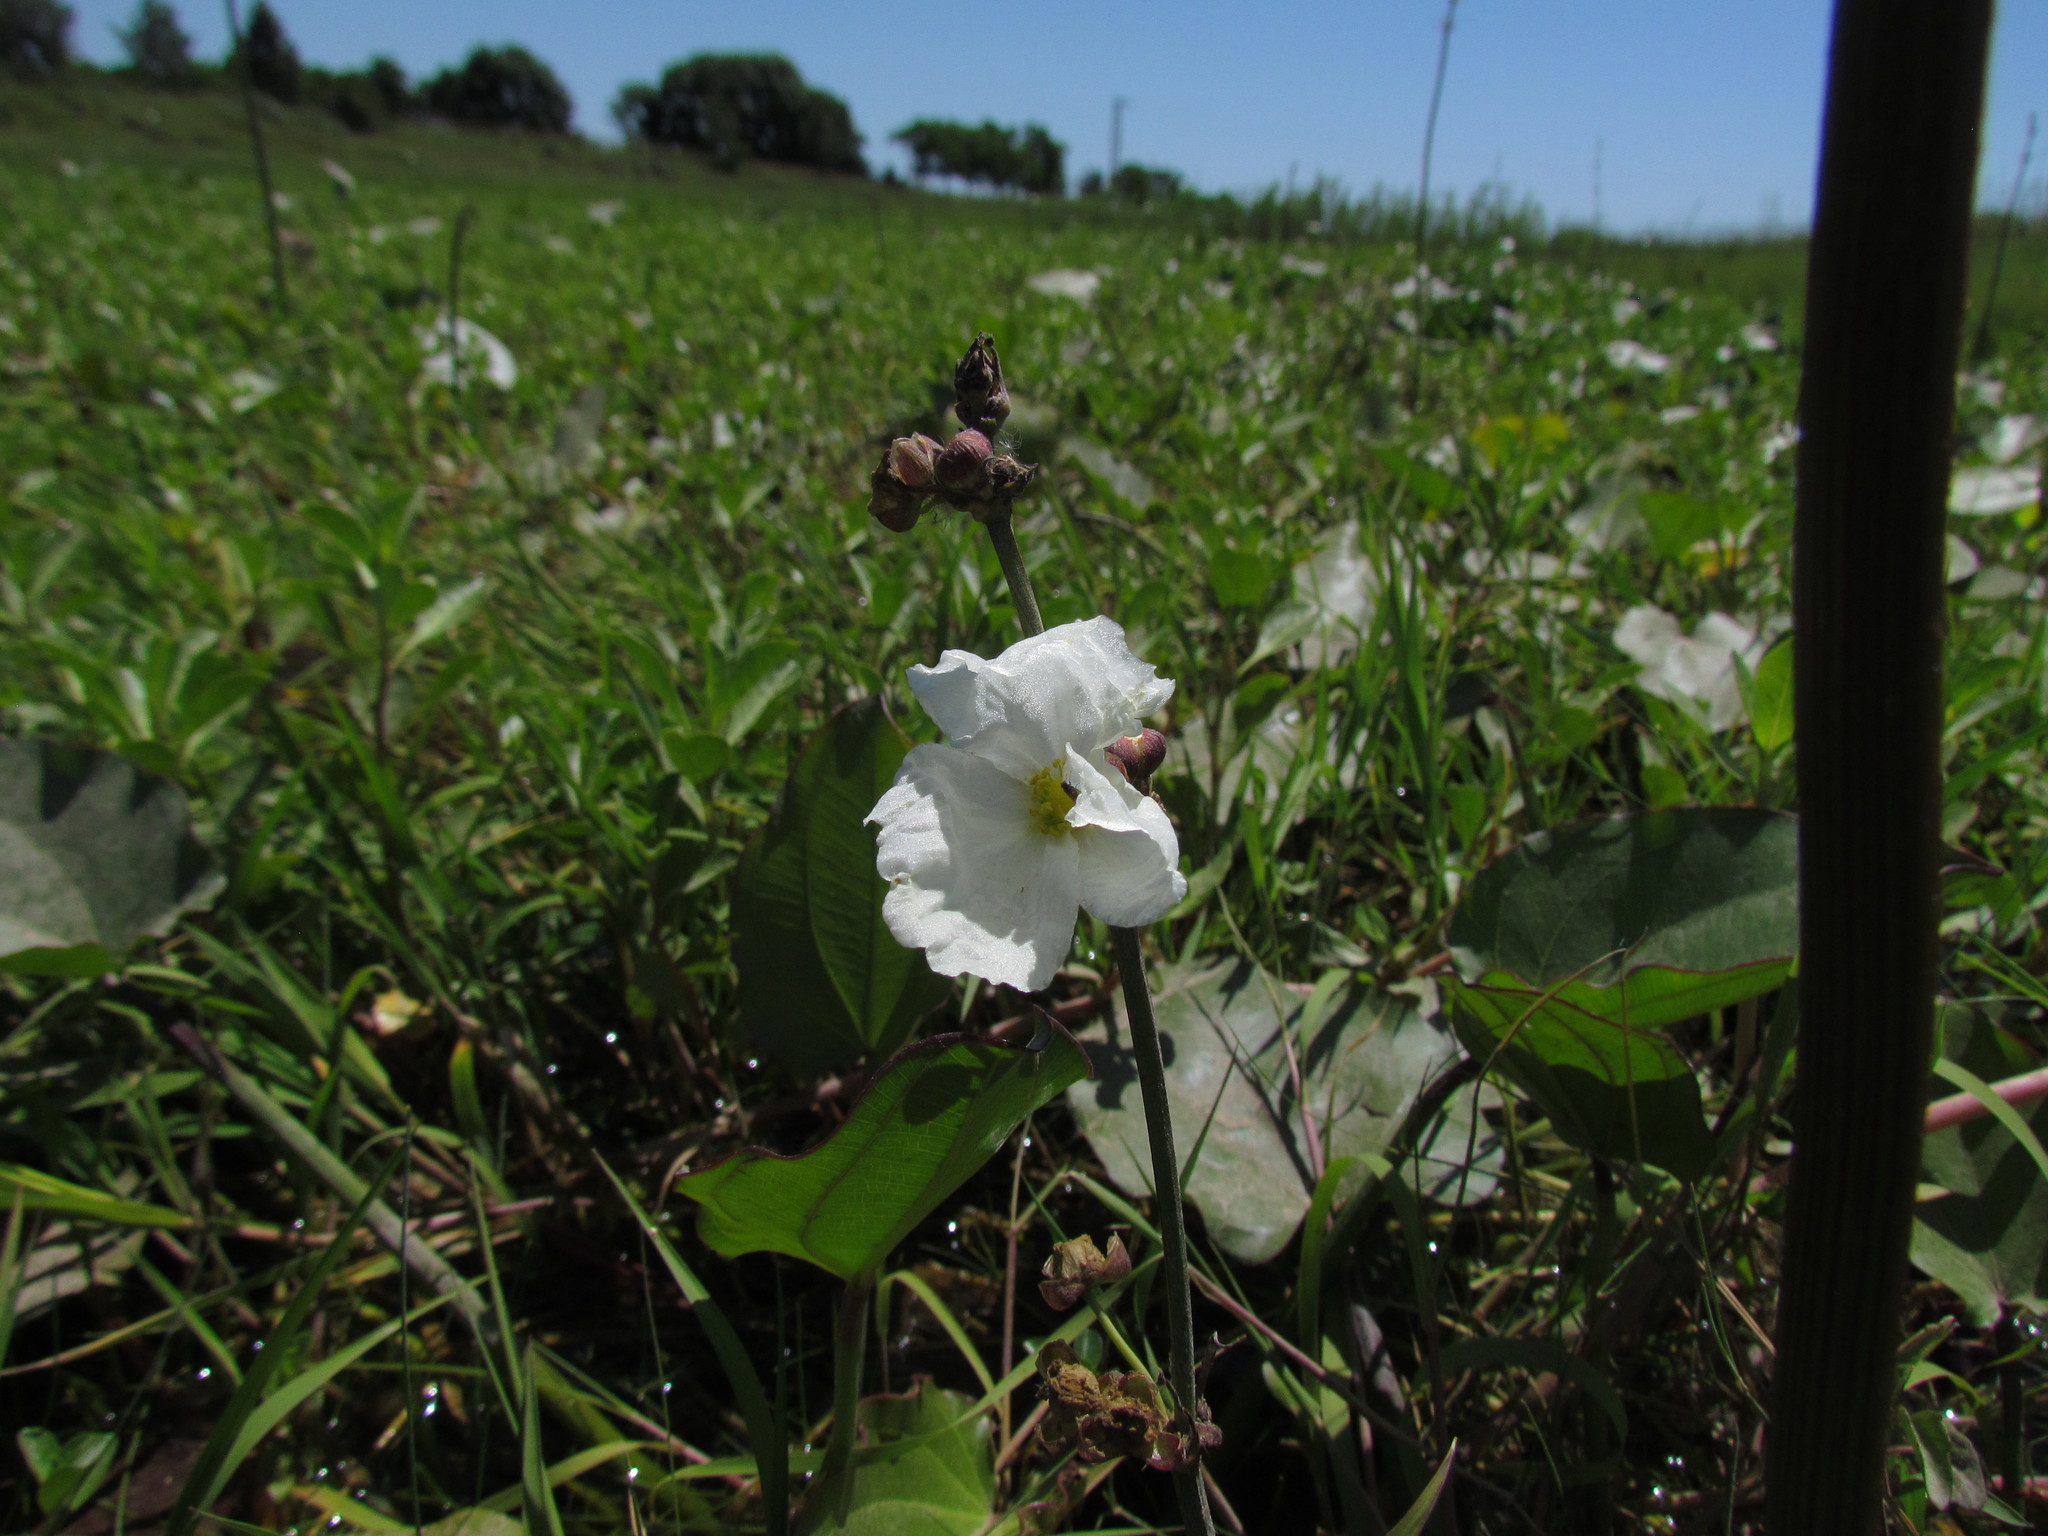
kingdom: Plantae
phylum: Tracheophyta
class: Liliopsida
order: Alismatales
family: Alismataceae
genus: Aquarius
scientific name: Aquarius grandiflorus
